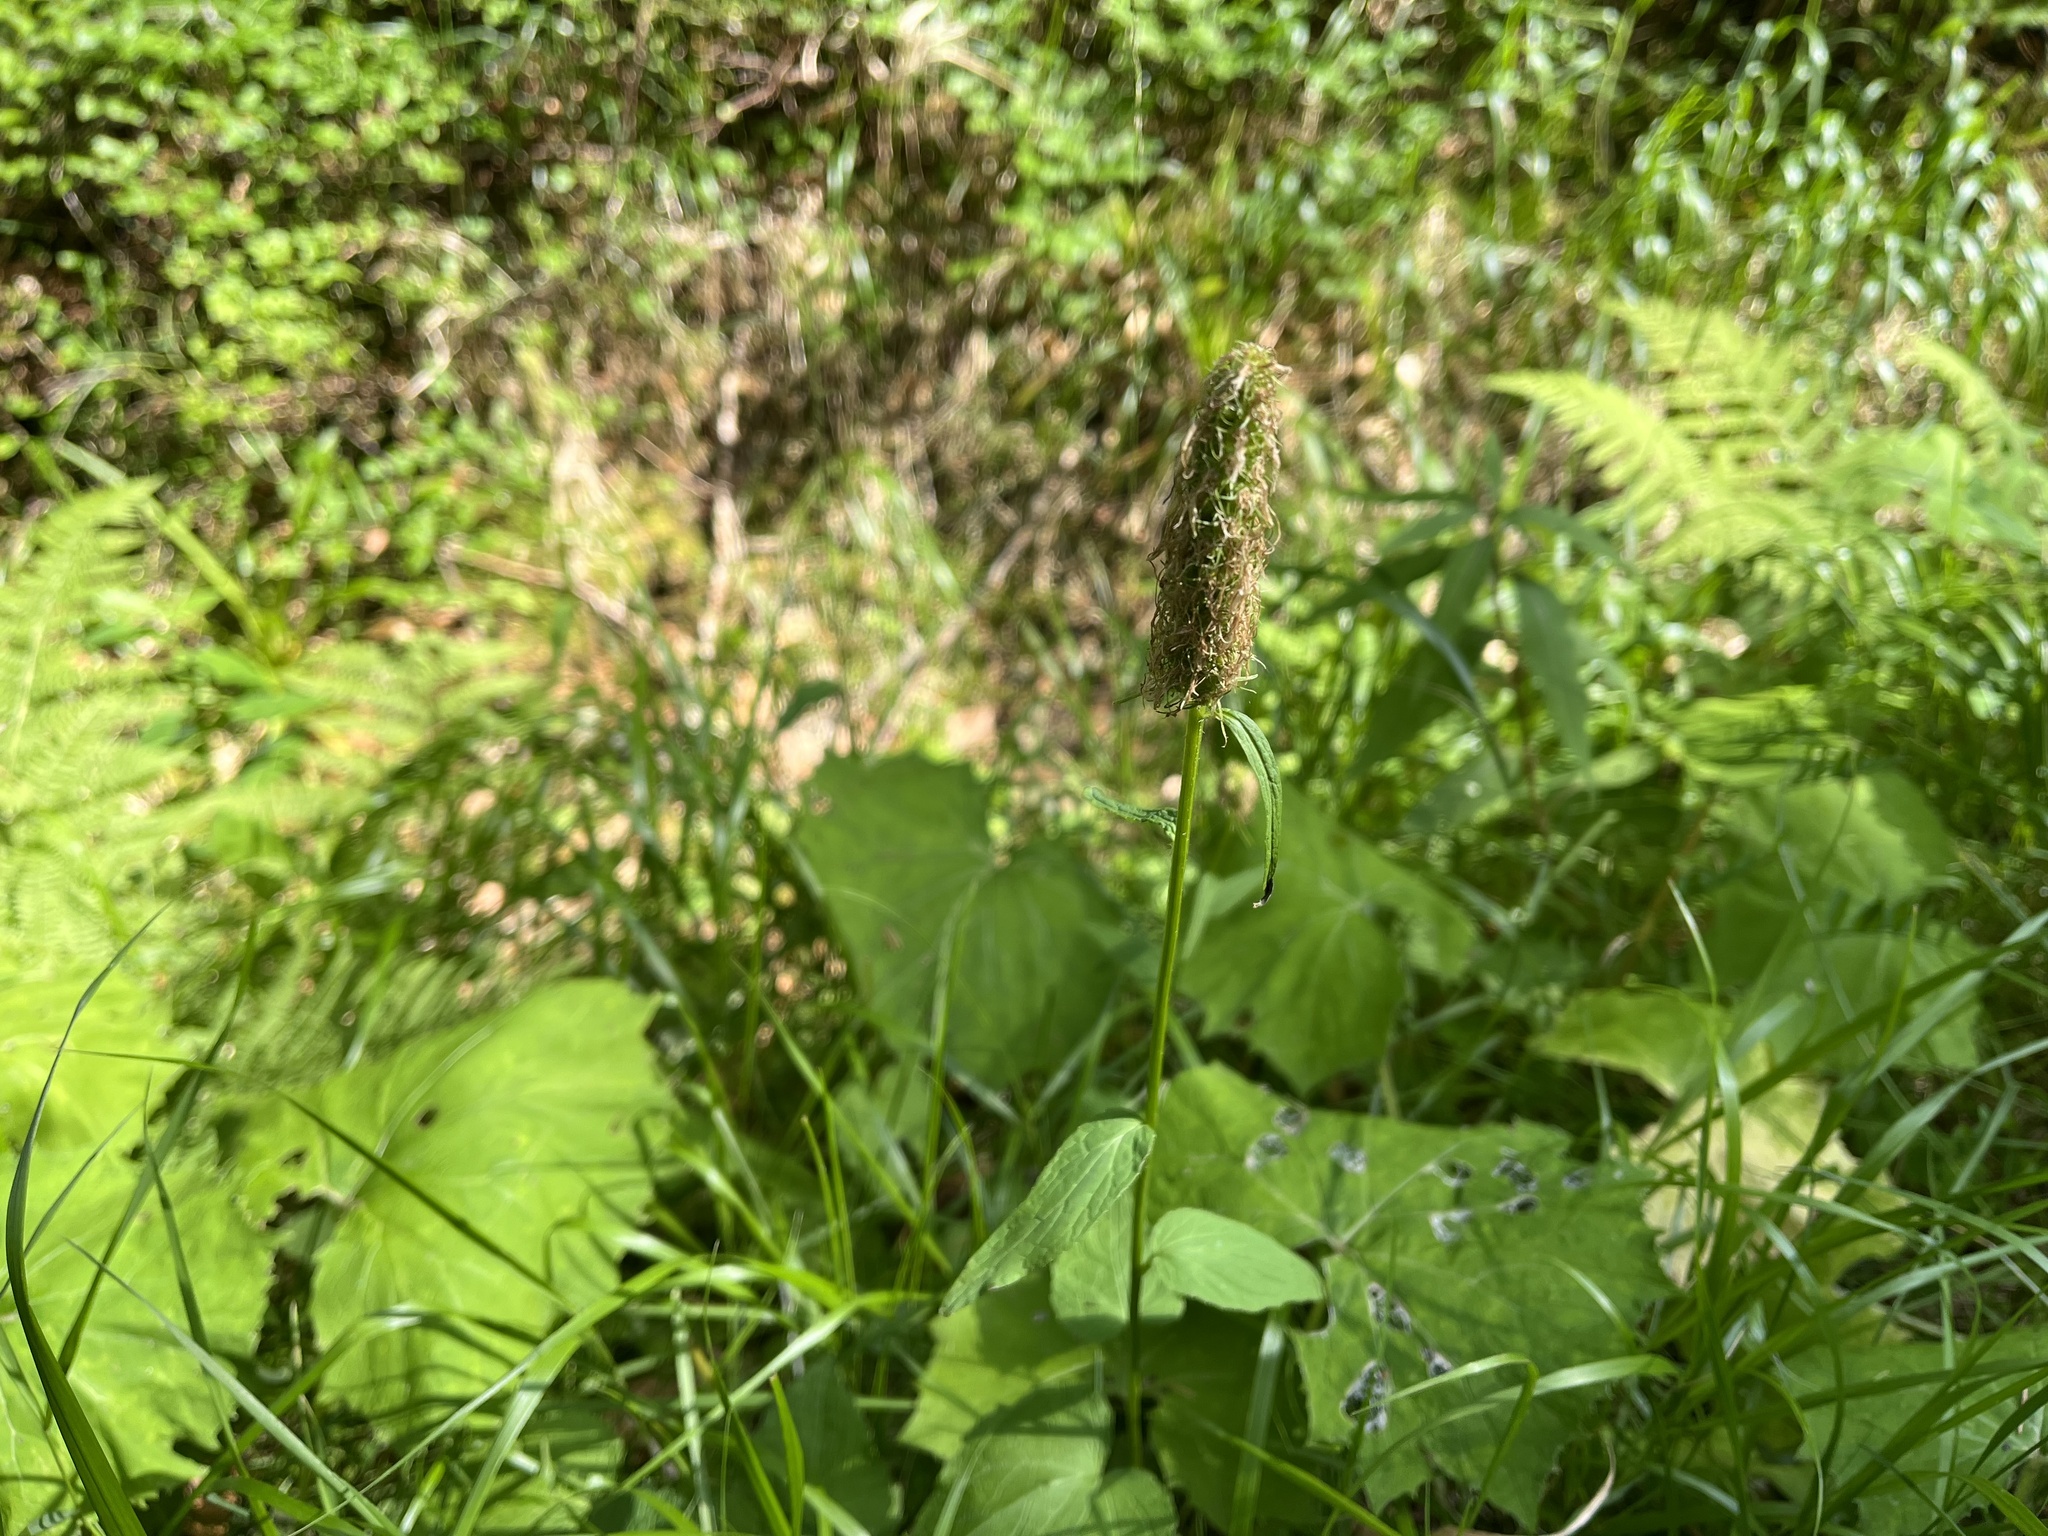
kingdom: Plantae
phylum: Tracheophyta
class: Magnoliopsida
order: Asterales
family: Campanulaceae
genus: Phyteuma
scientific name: Phyteuma spicatum
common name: Spiked rampion
